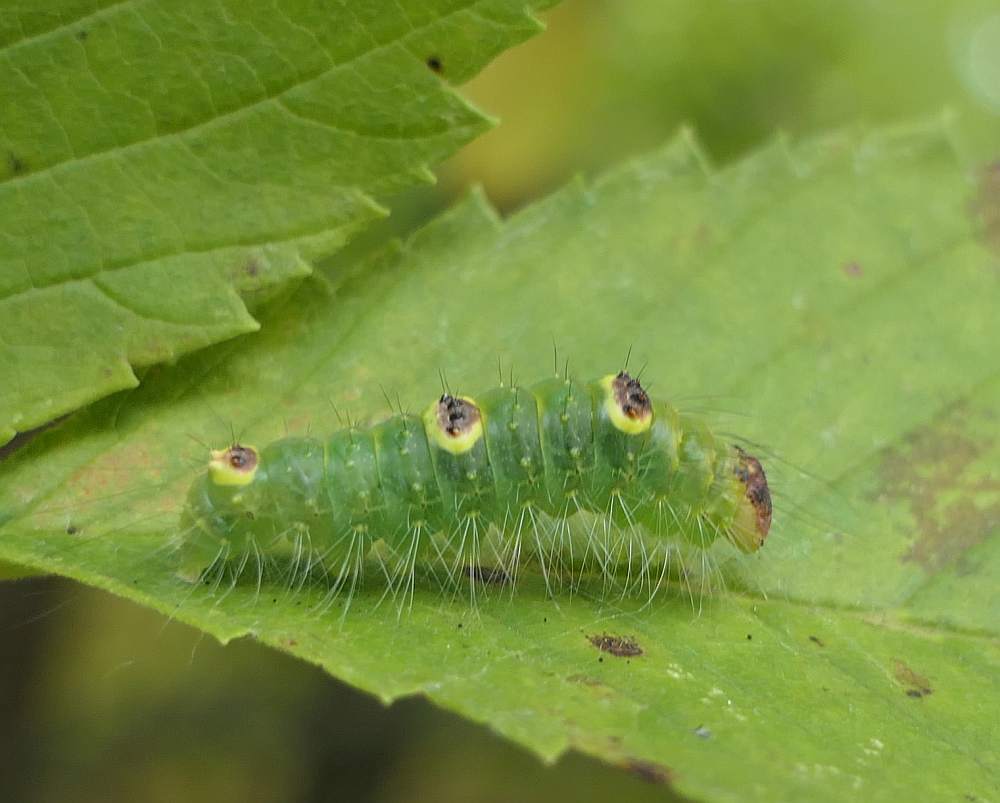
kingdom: Animalia
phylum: Arthropoda
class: Insecta
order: Lepidoptera
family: Noctuidae
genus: Acronicta
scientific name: Acronicta morula
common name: Ochre dagger
